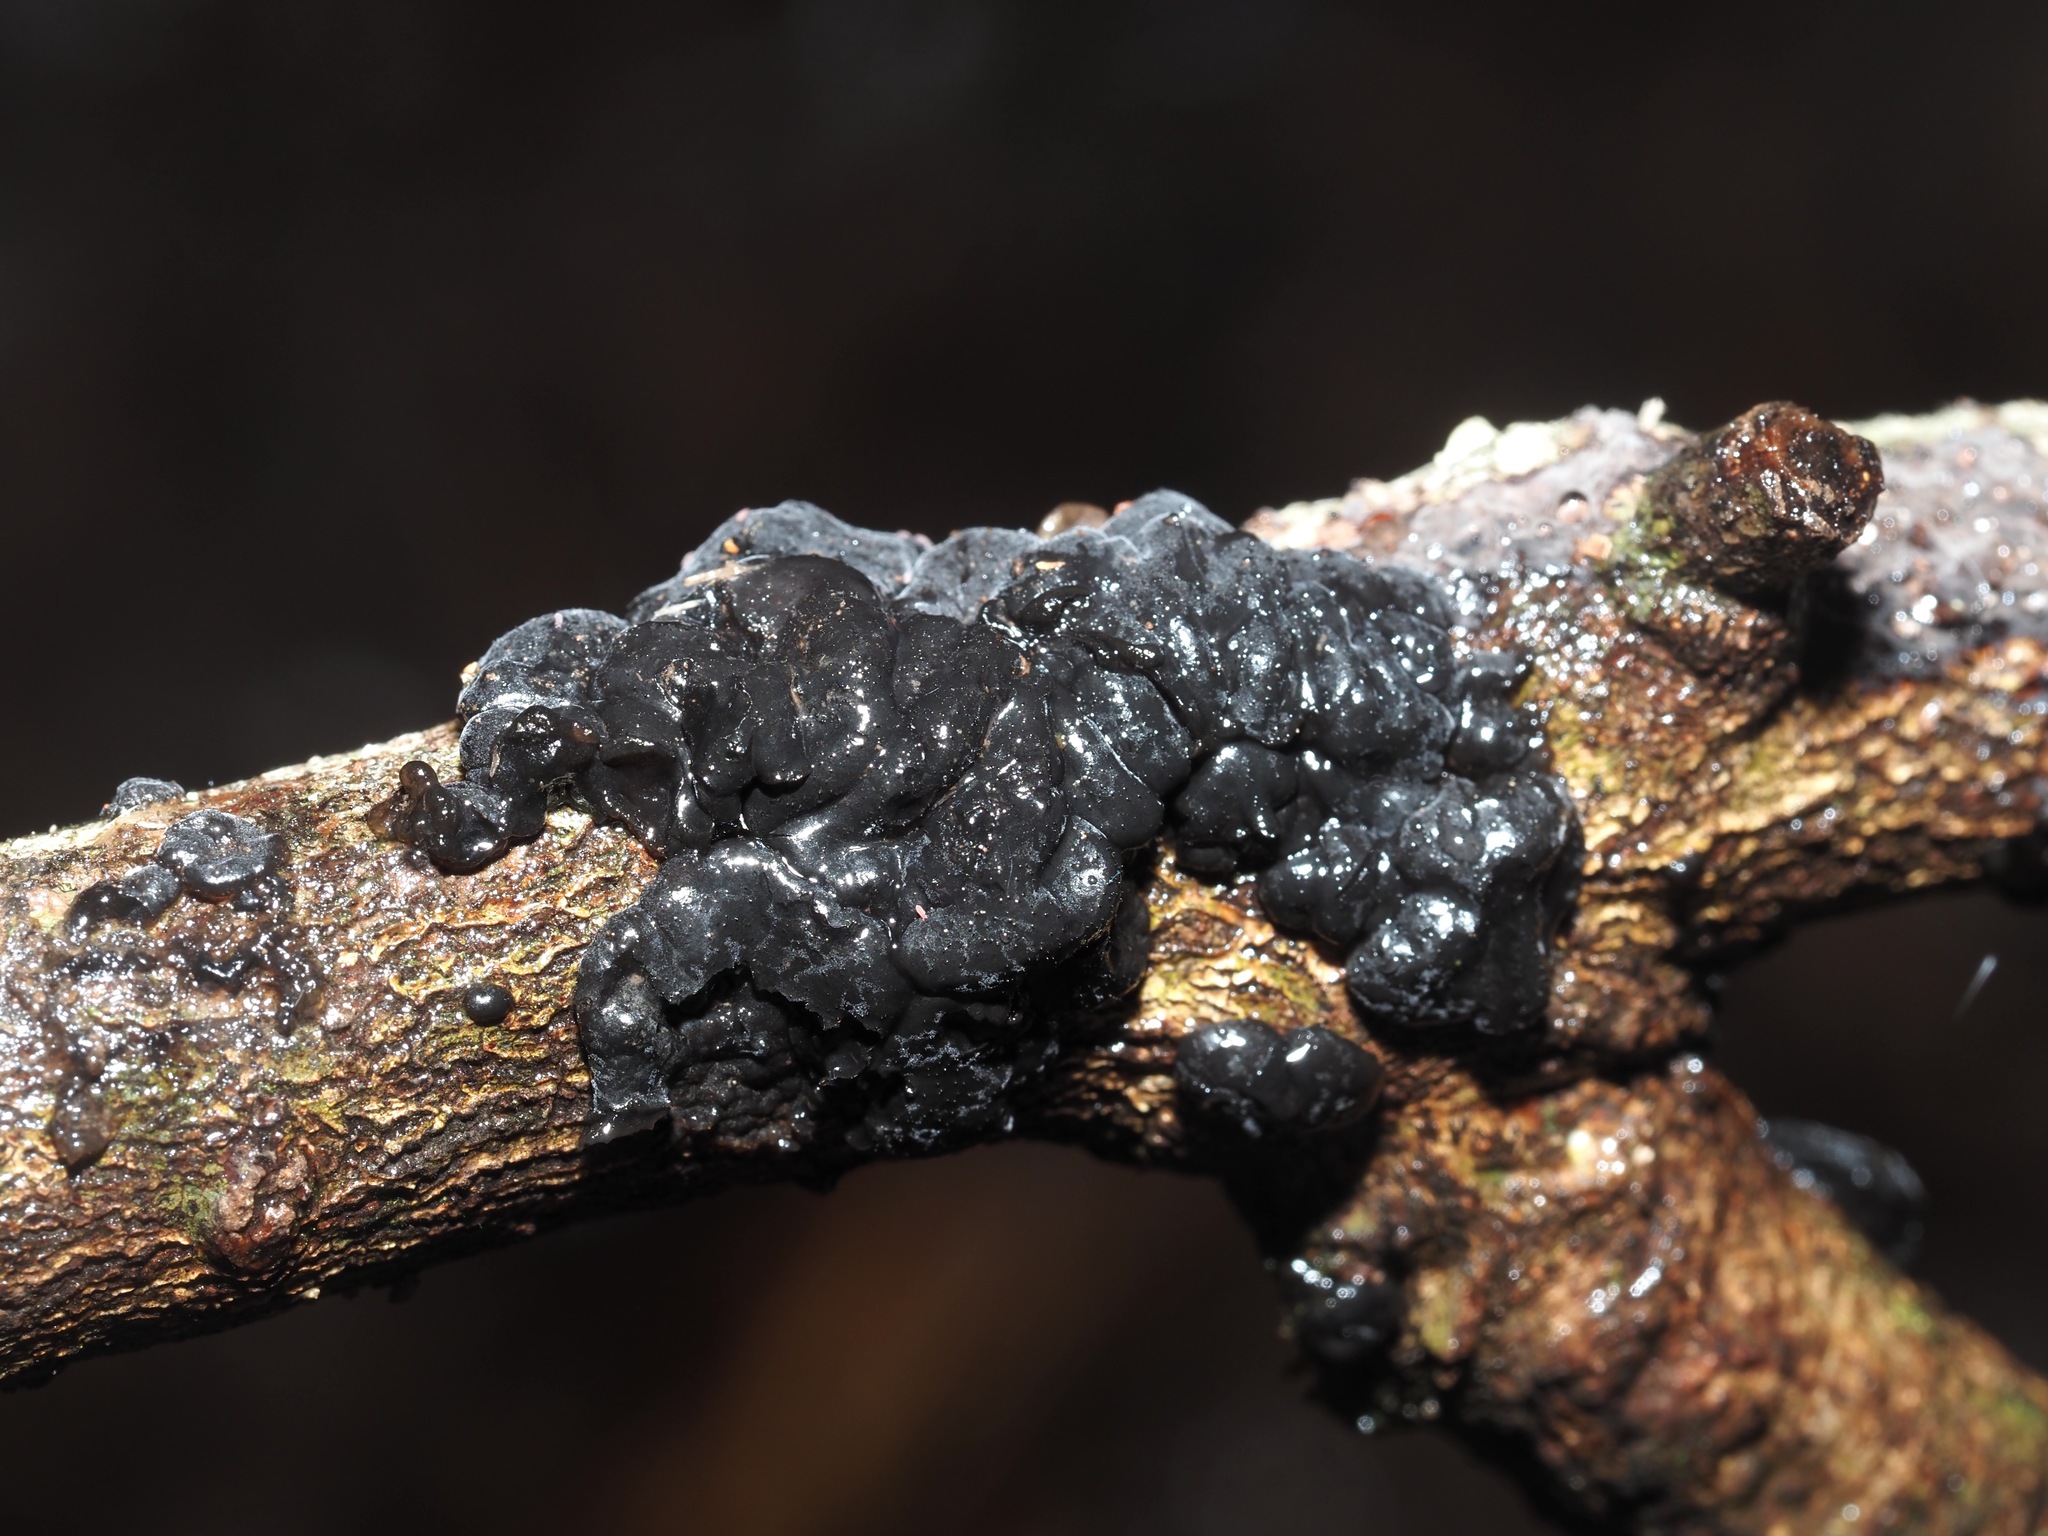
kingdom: Fungi
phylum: Basidiomycota
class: Agaricomycetes
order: Auriculariales
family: Auriculariaceae
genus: Exidia
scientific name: Exidia glandulosa
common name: Witches' butter
